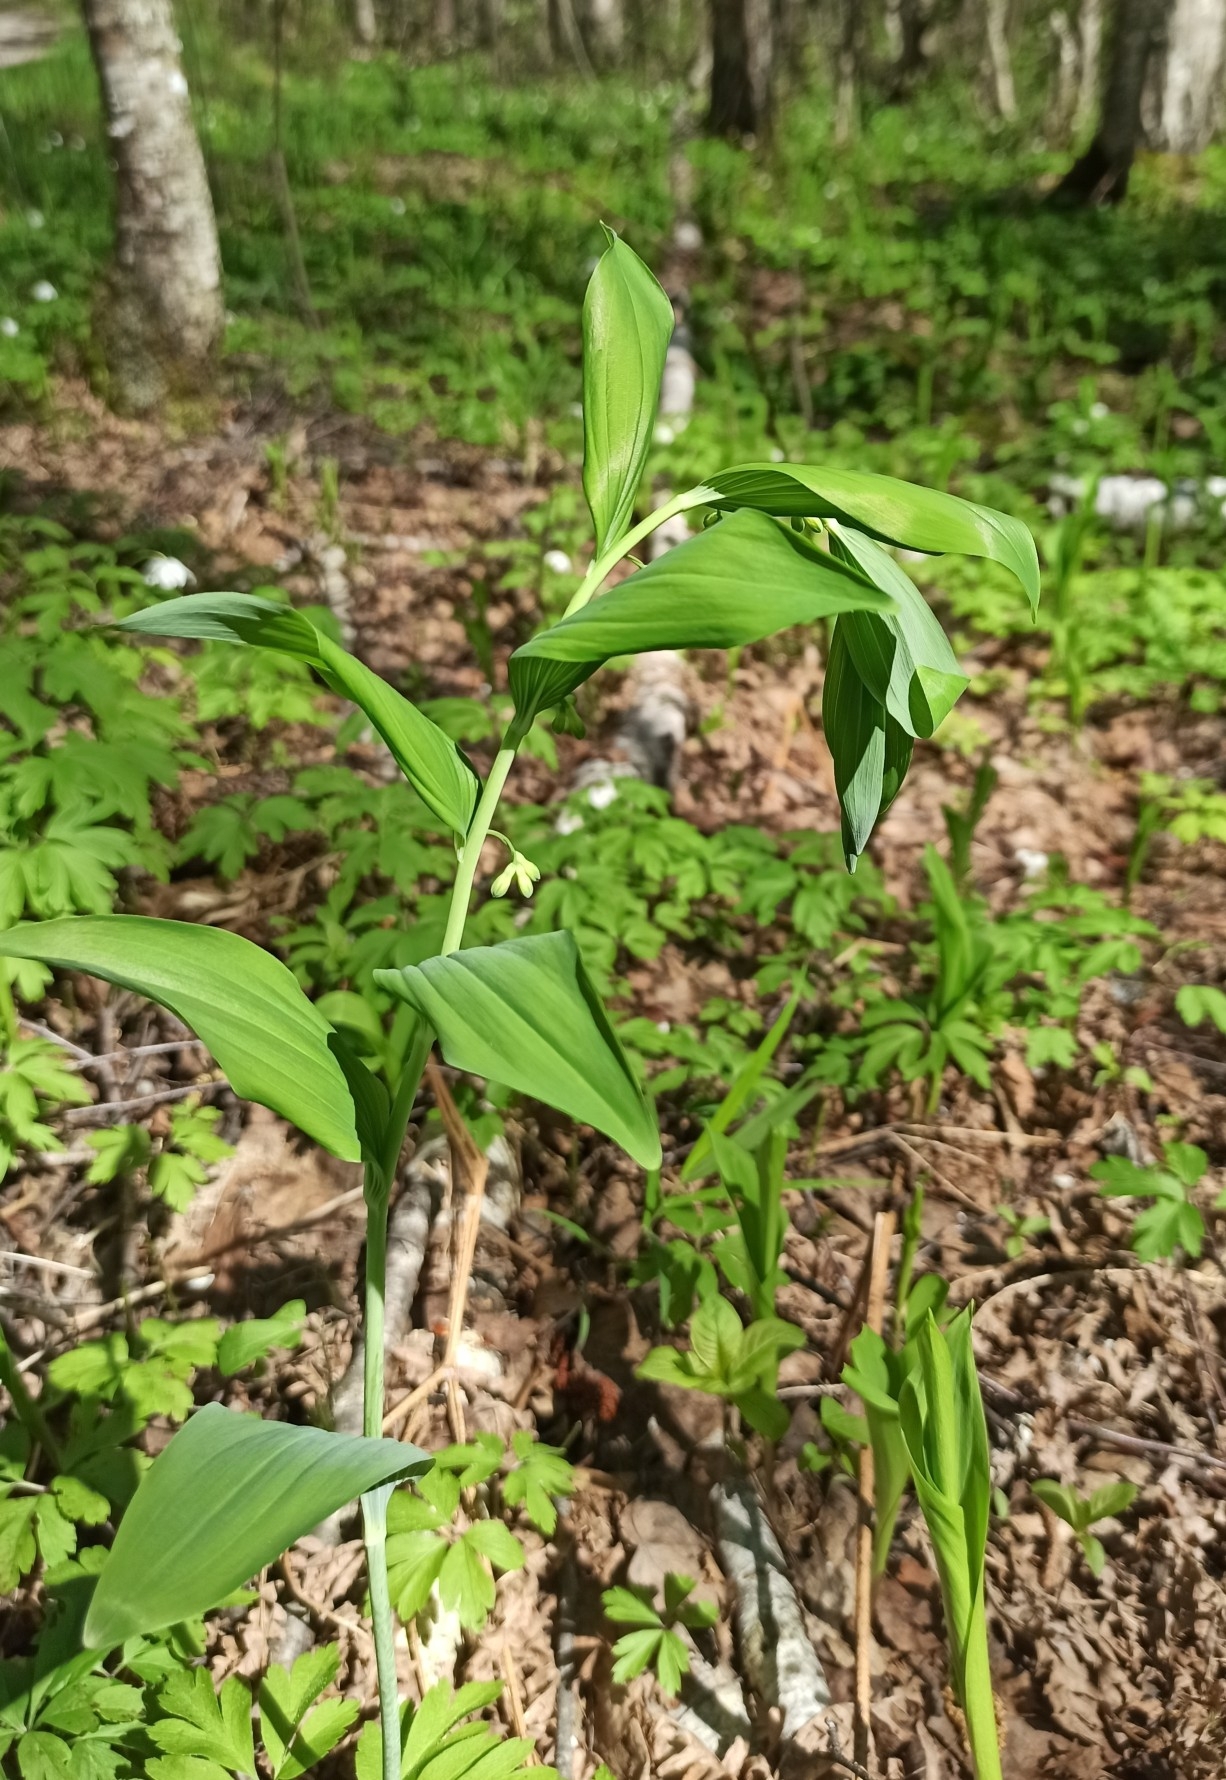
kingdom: Plantae
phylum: Tracheophyta
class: Liliopsida
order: Asparagales
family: Asparagaceae
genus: Polygonatum
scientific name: Polygonatum multiflorum
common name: Solomon's-seal
